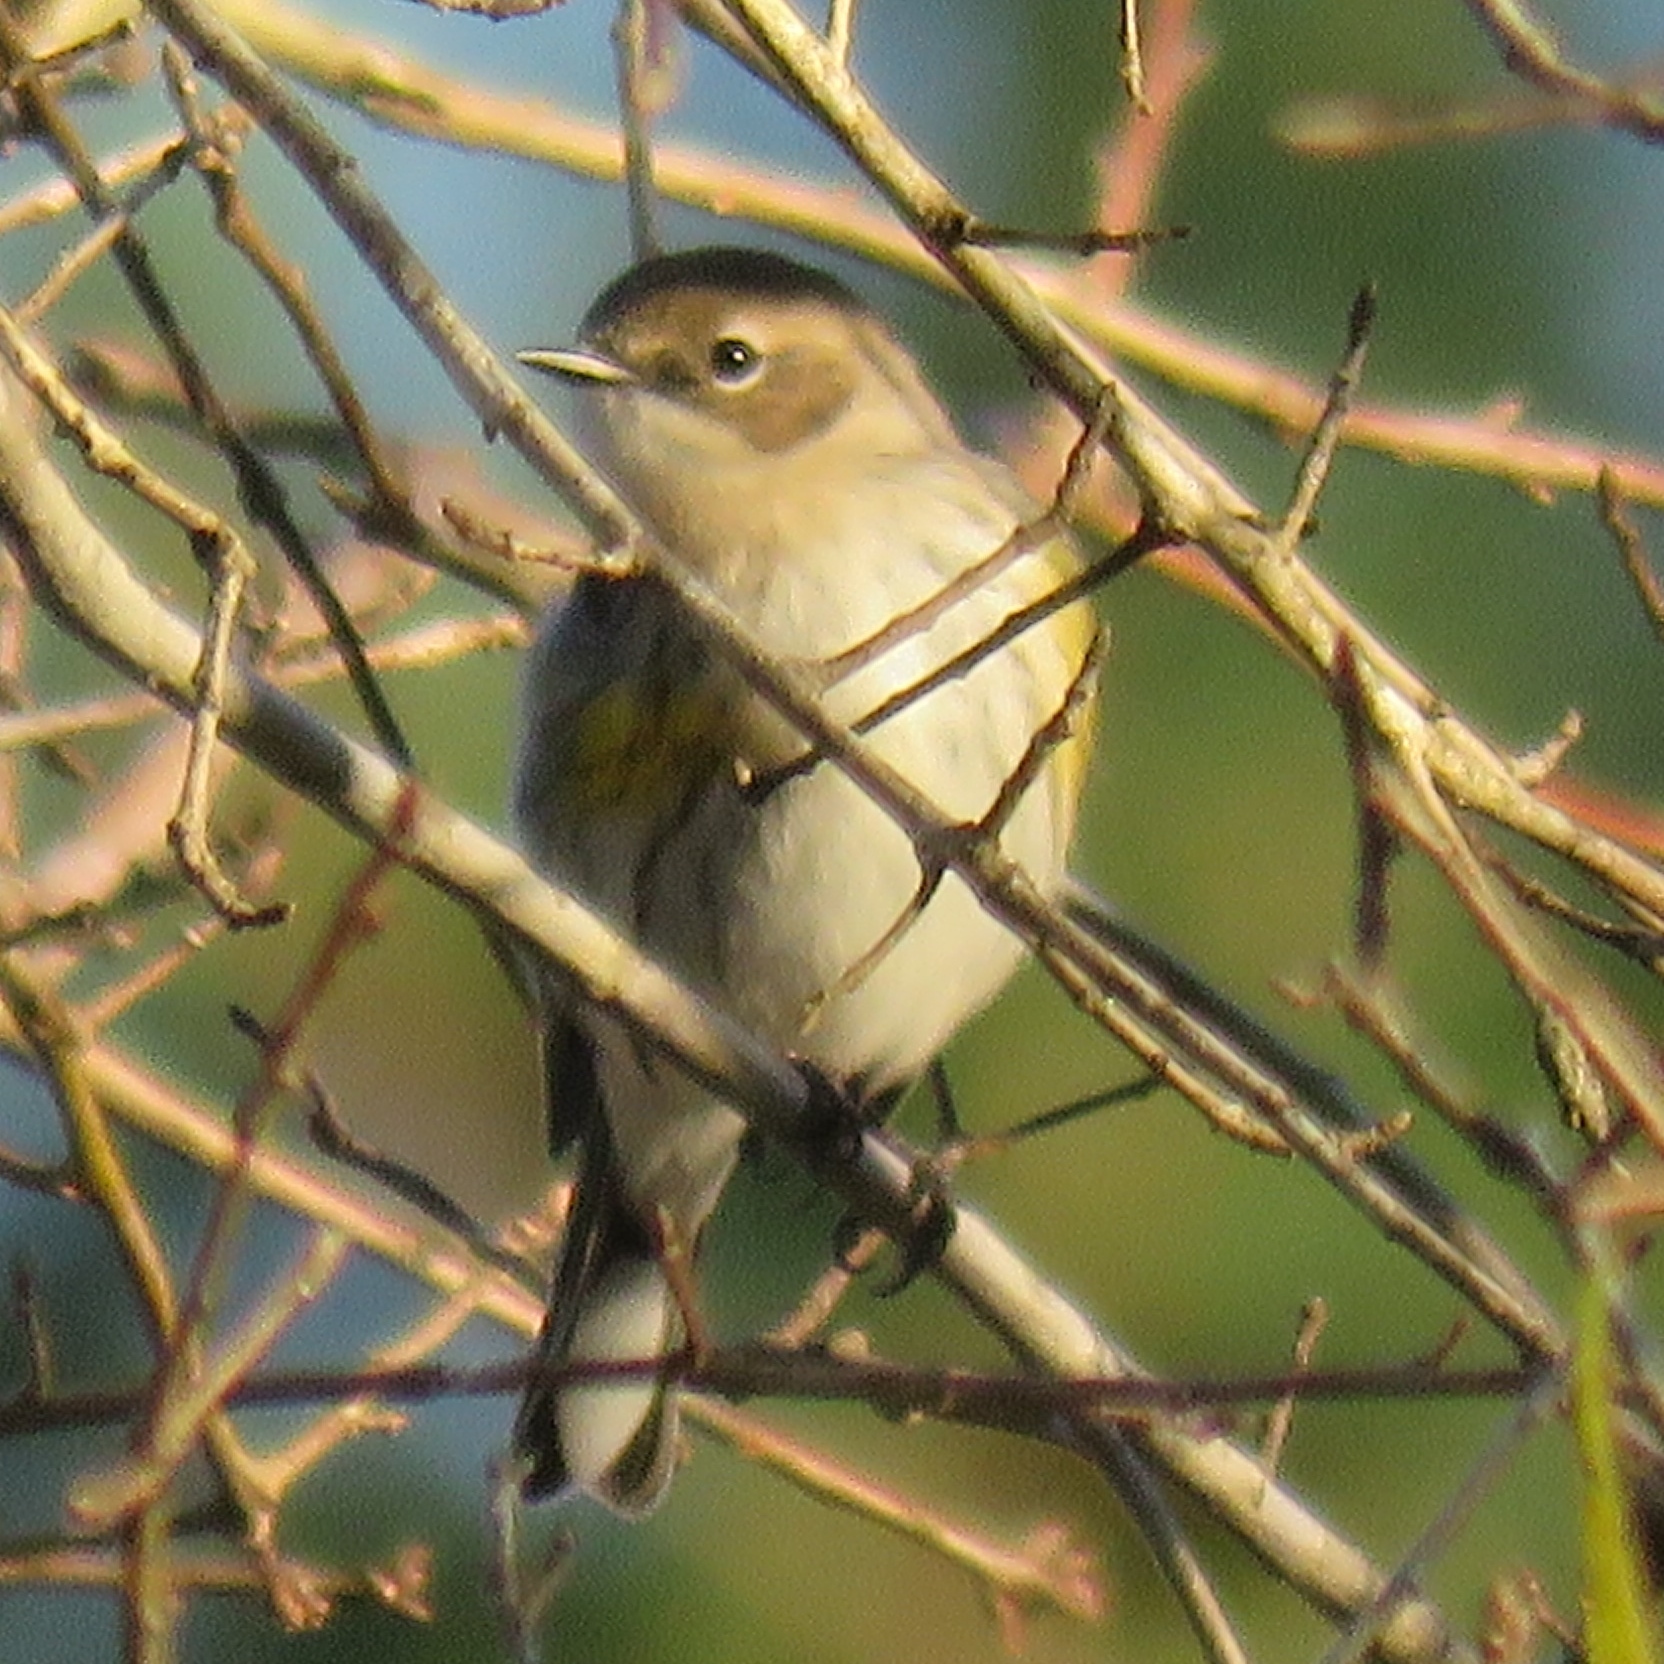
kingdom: Animalia
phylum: Chordata
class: Aves
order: Passeriformes
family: Parulidae
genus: Setophaga
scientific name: Setophaga coronata
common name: Myrtle warbler
